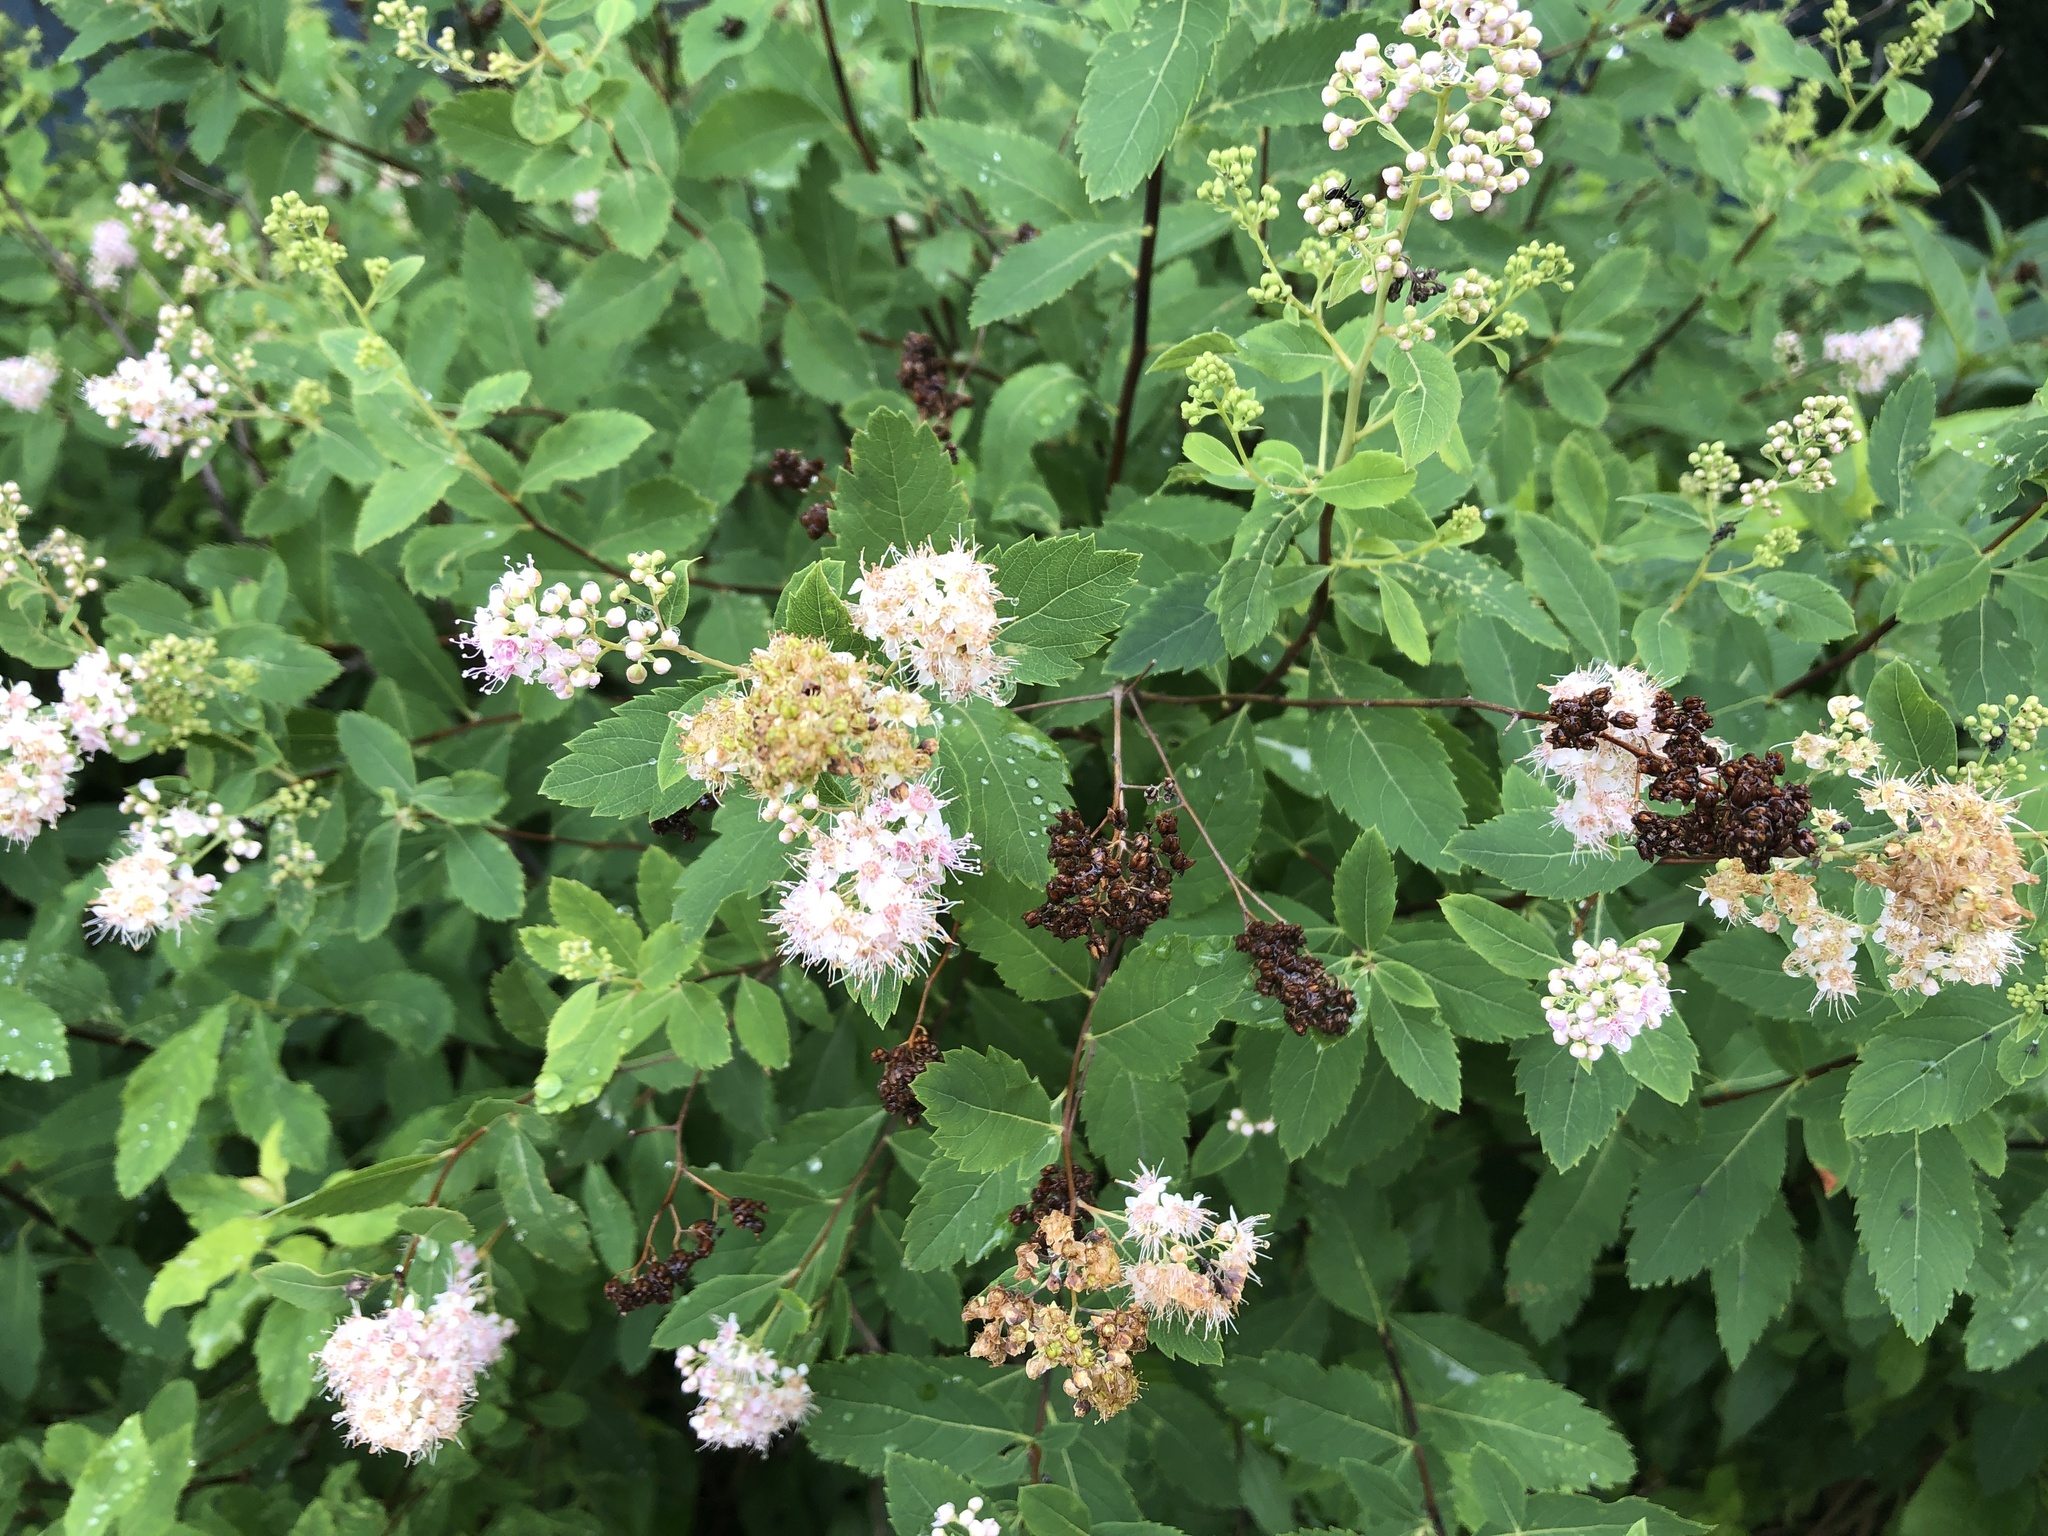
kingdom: Plantae
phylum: Tracheophyta
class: Magnoliopsida
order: Rosales
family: Rosaceae
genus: Spiraea
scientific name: Spiraea alba
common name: Pale bridewort
